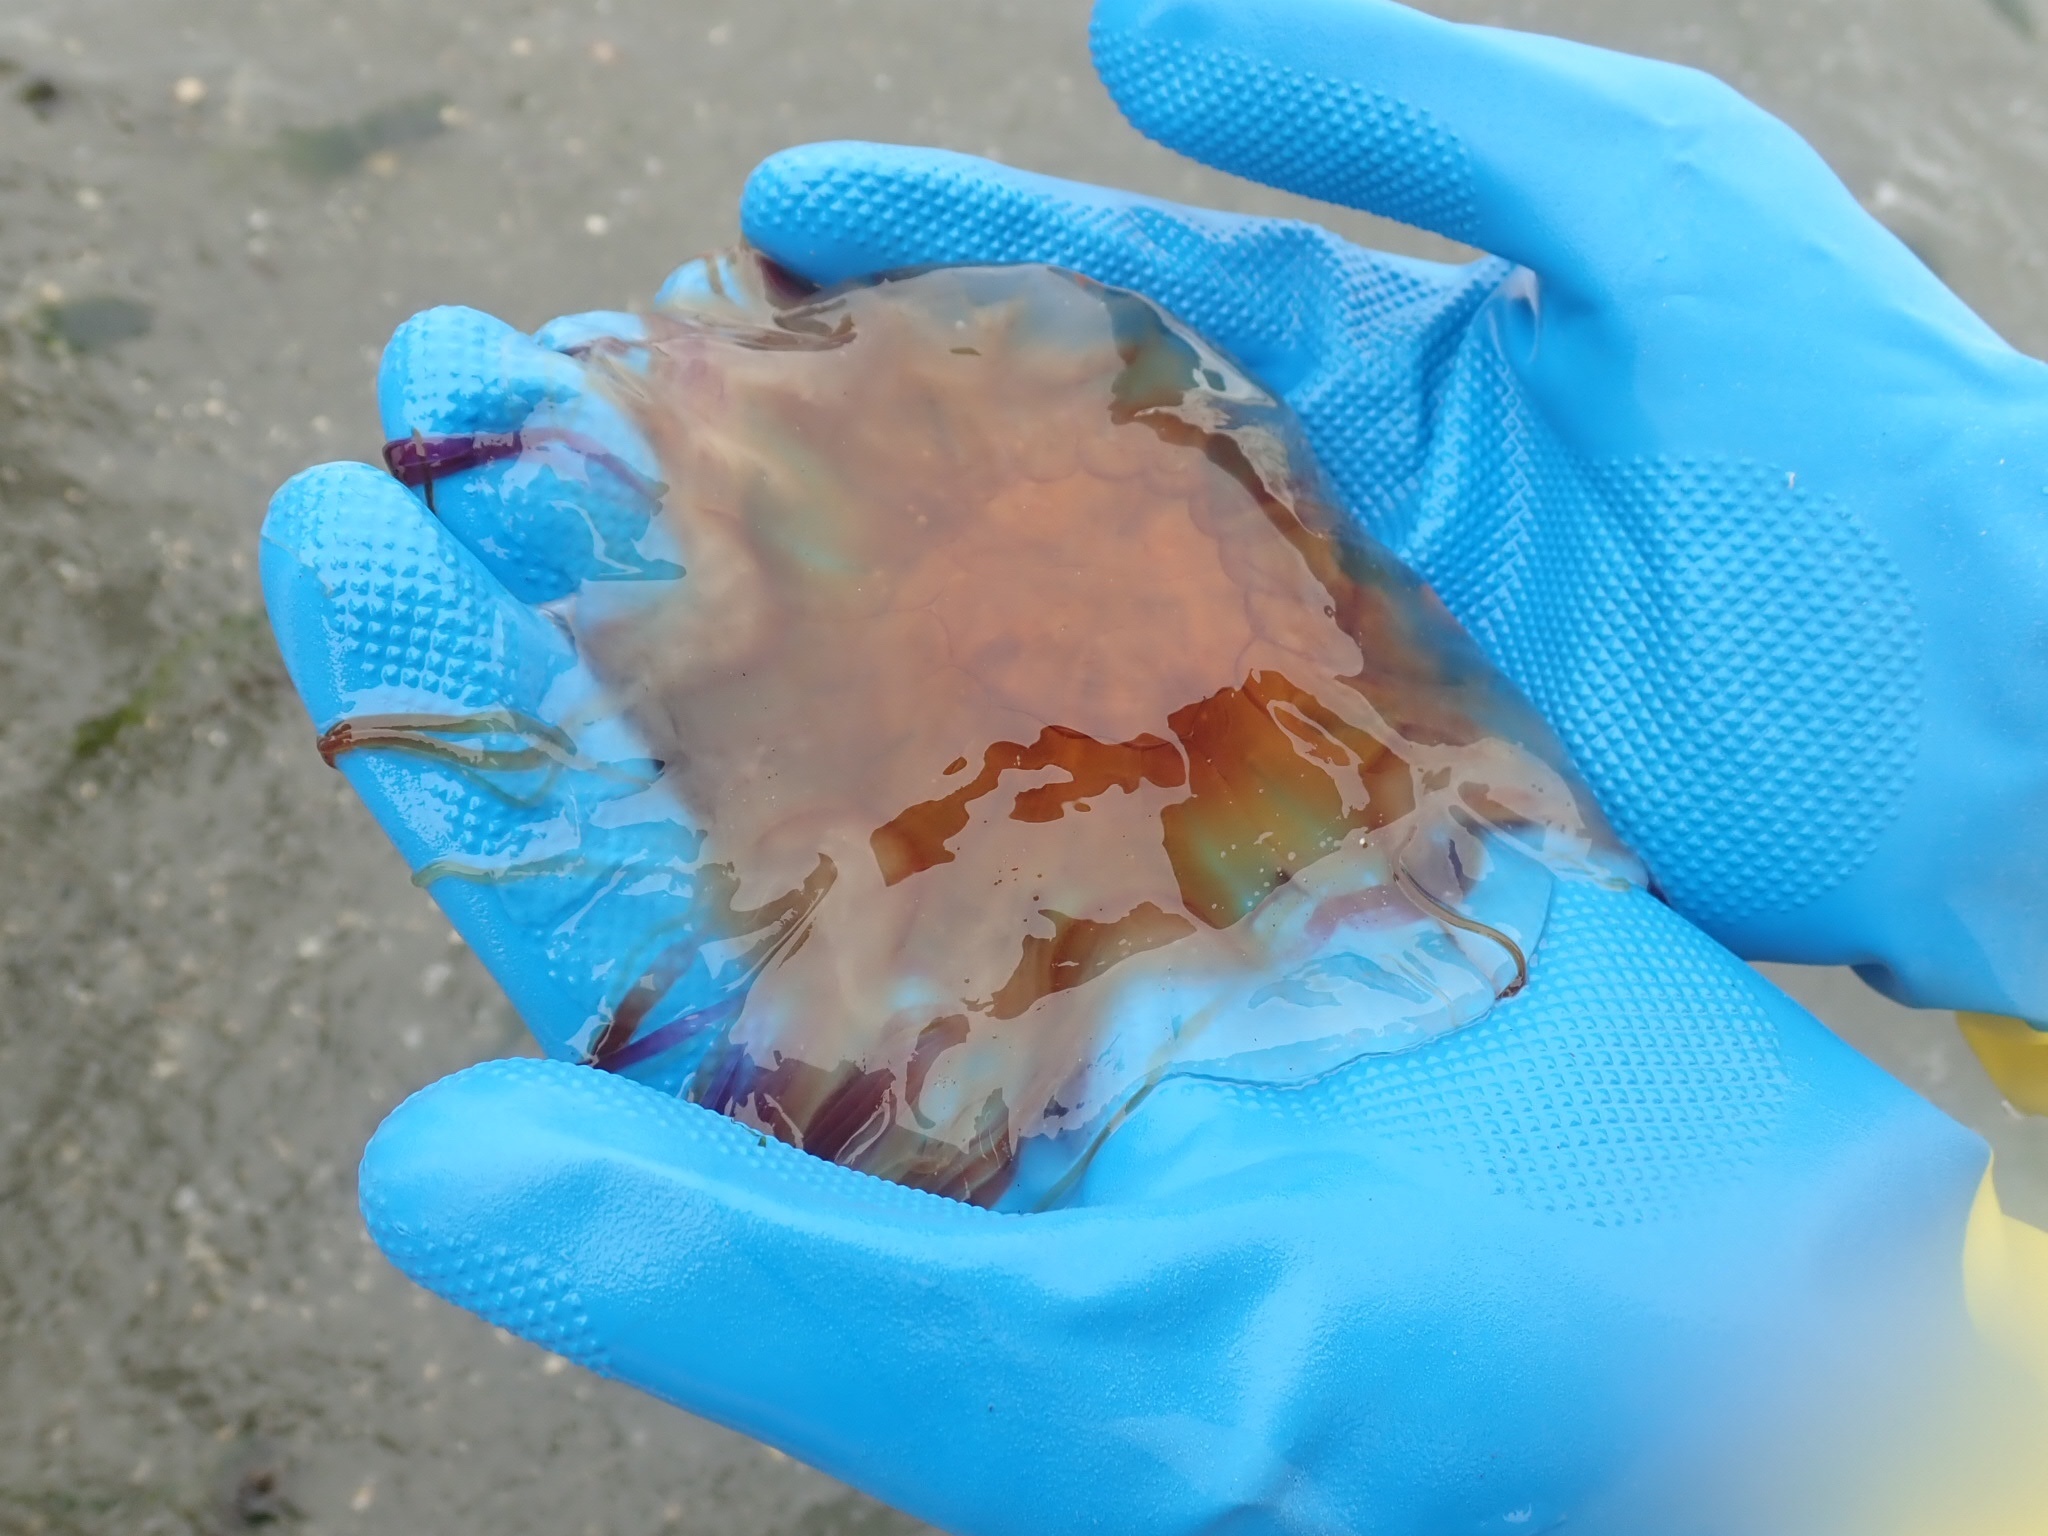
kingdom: Animalia
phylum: Cnidaria
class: Scyphozoa
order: Semaeostomeae
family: Cyaneidae
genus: Cyanea
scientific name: Cyanea ferruginea
